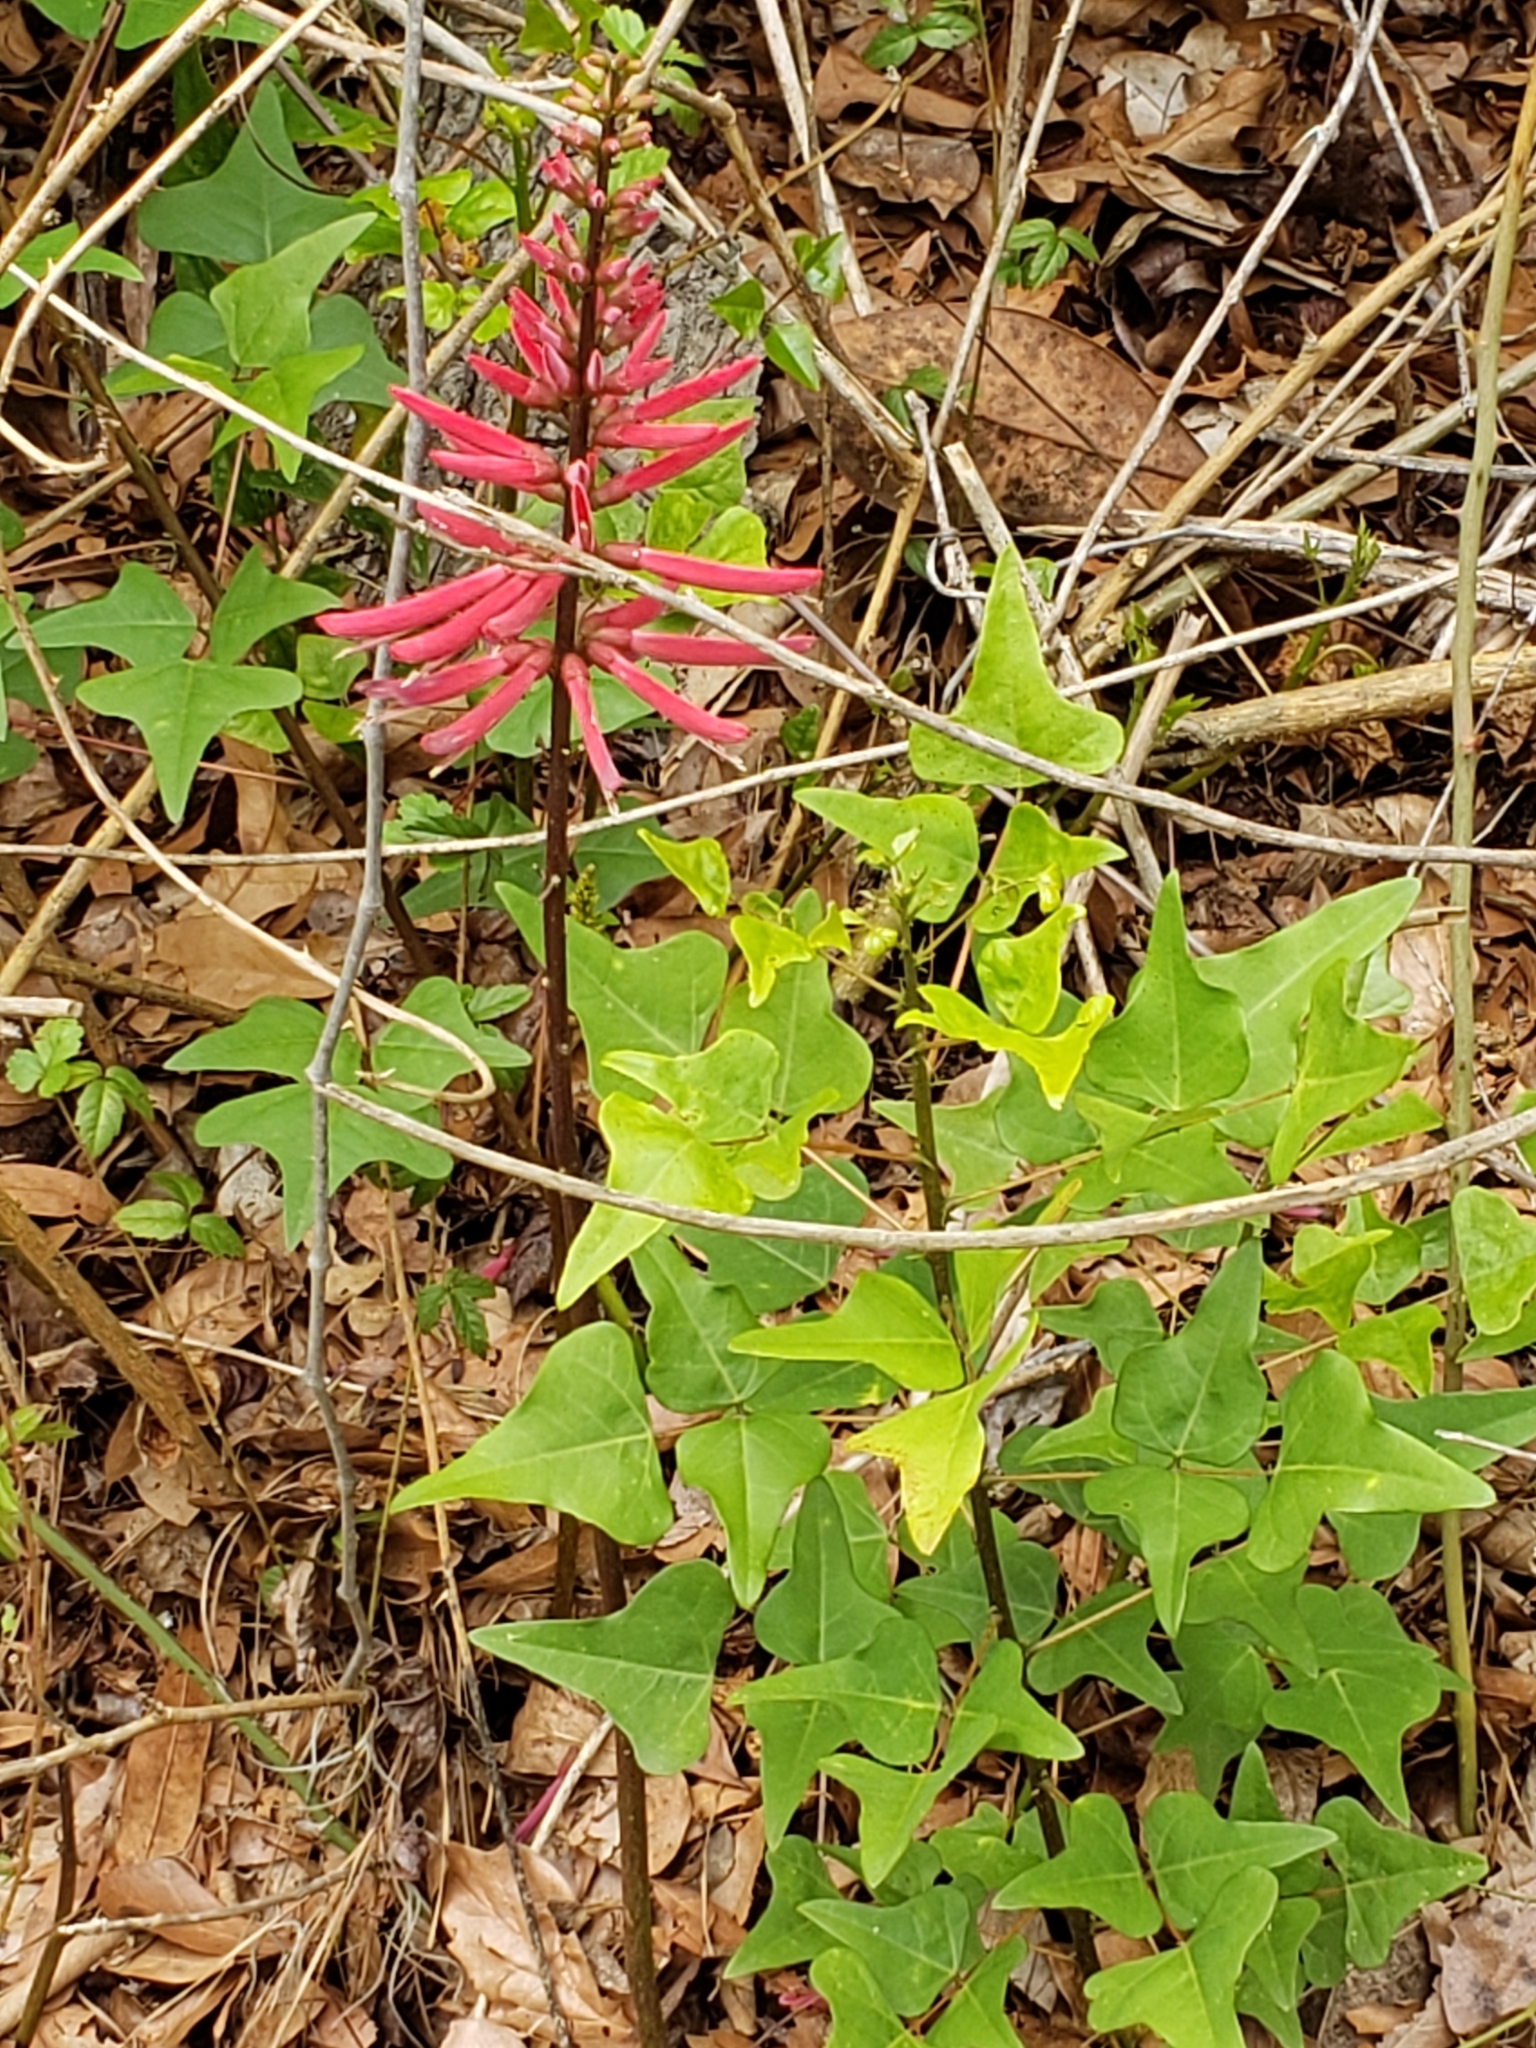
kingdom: Plantae
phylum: Tracheophyta
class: Magnoliopsida
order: Fabales
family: Fabaceae
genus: Erythrina
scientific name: Erythrina herbacea
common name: Coral-bean
